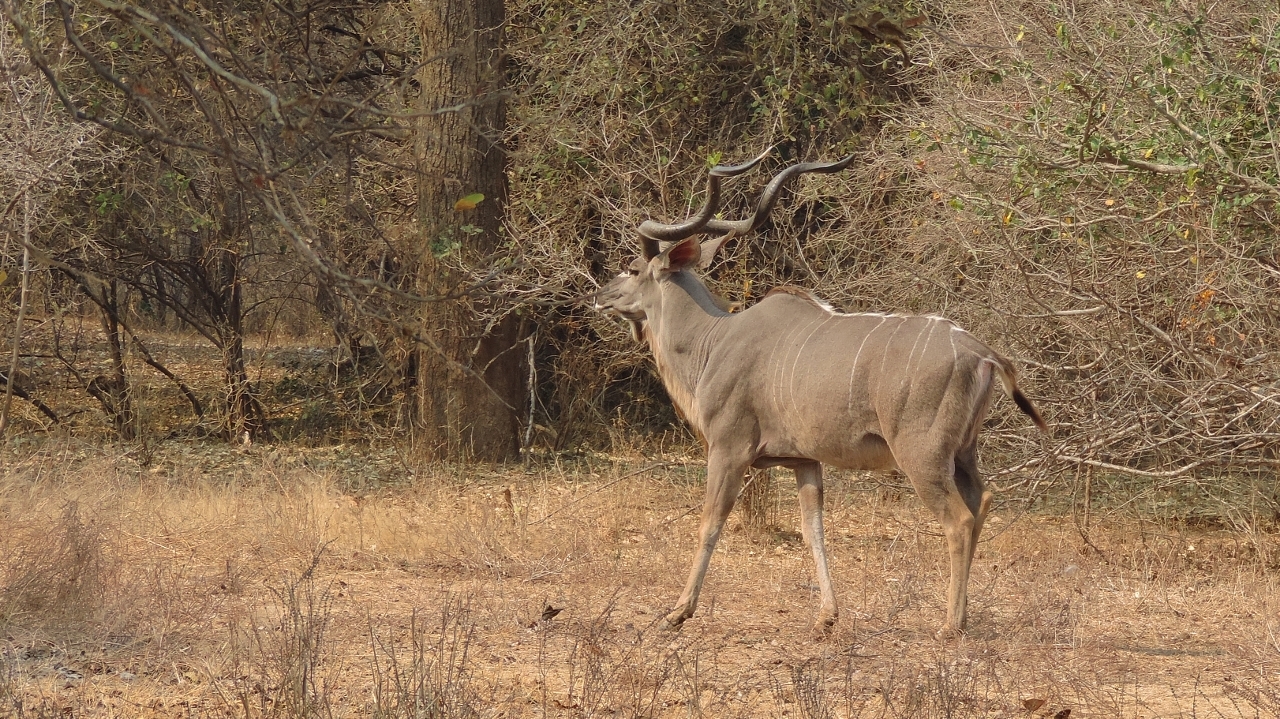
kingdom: Animalia
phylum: Chordata
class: Mammalia
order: Artiodactyla
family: Bovidae
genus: Tragelaphus
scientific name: Tragelaphus strepsiceros
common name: Greater kudu
